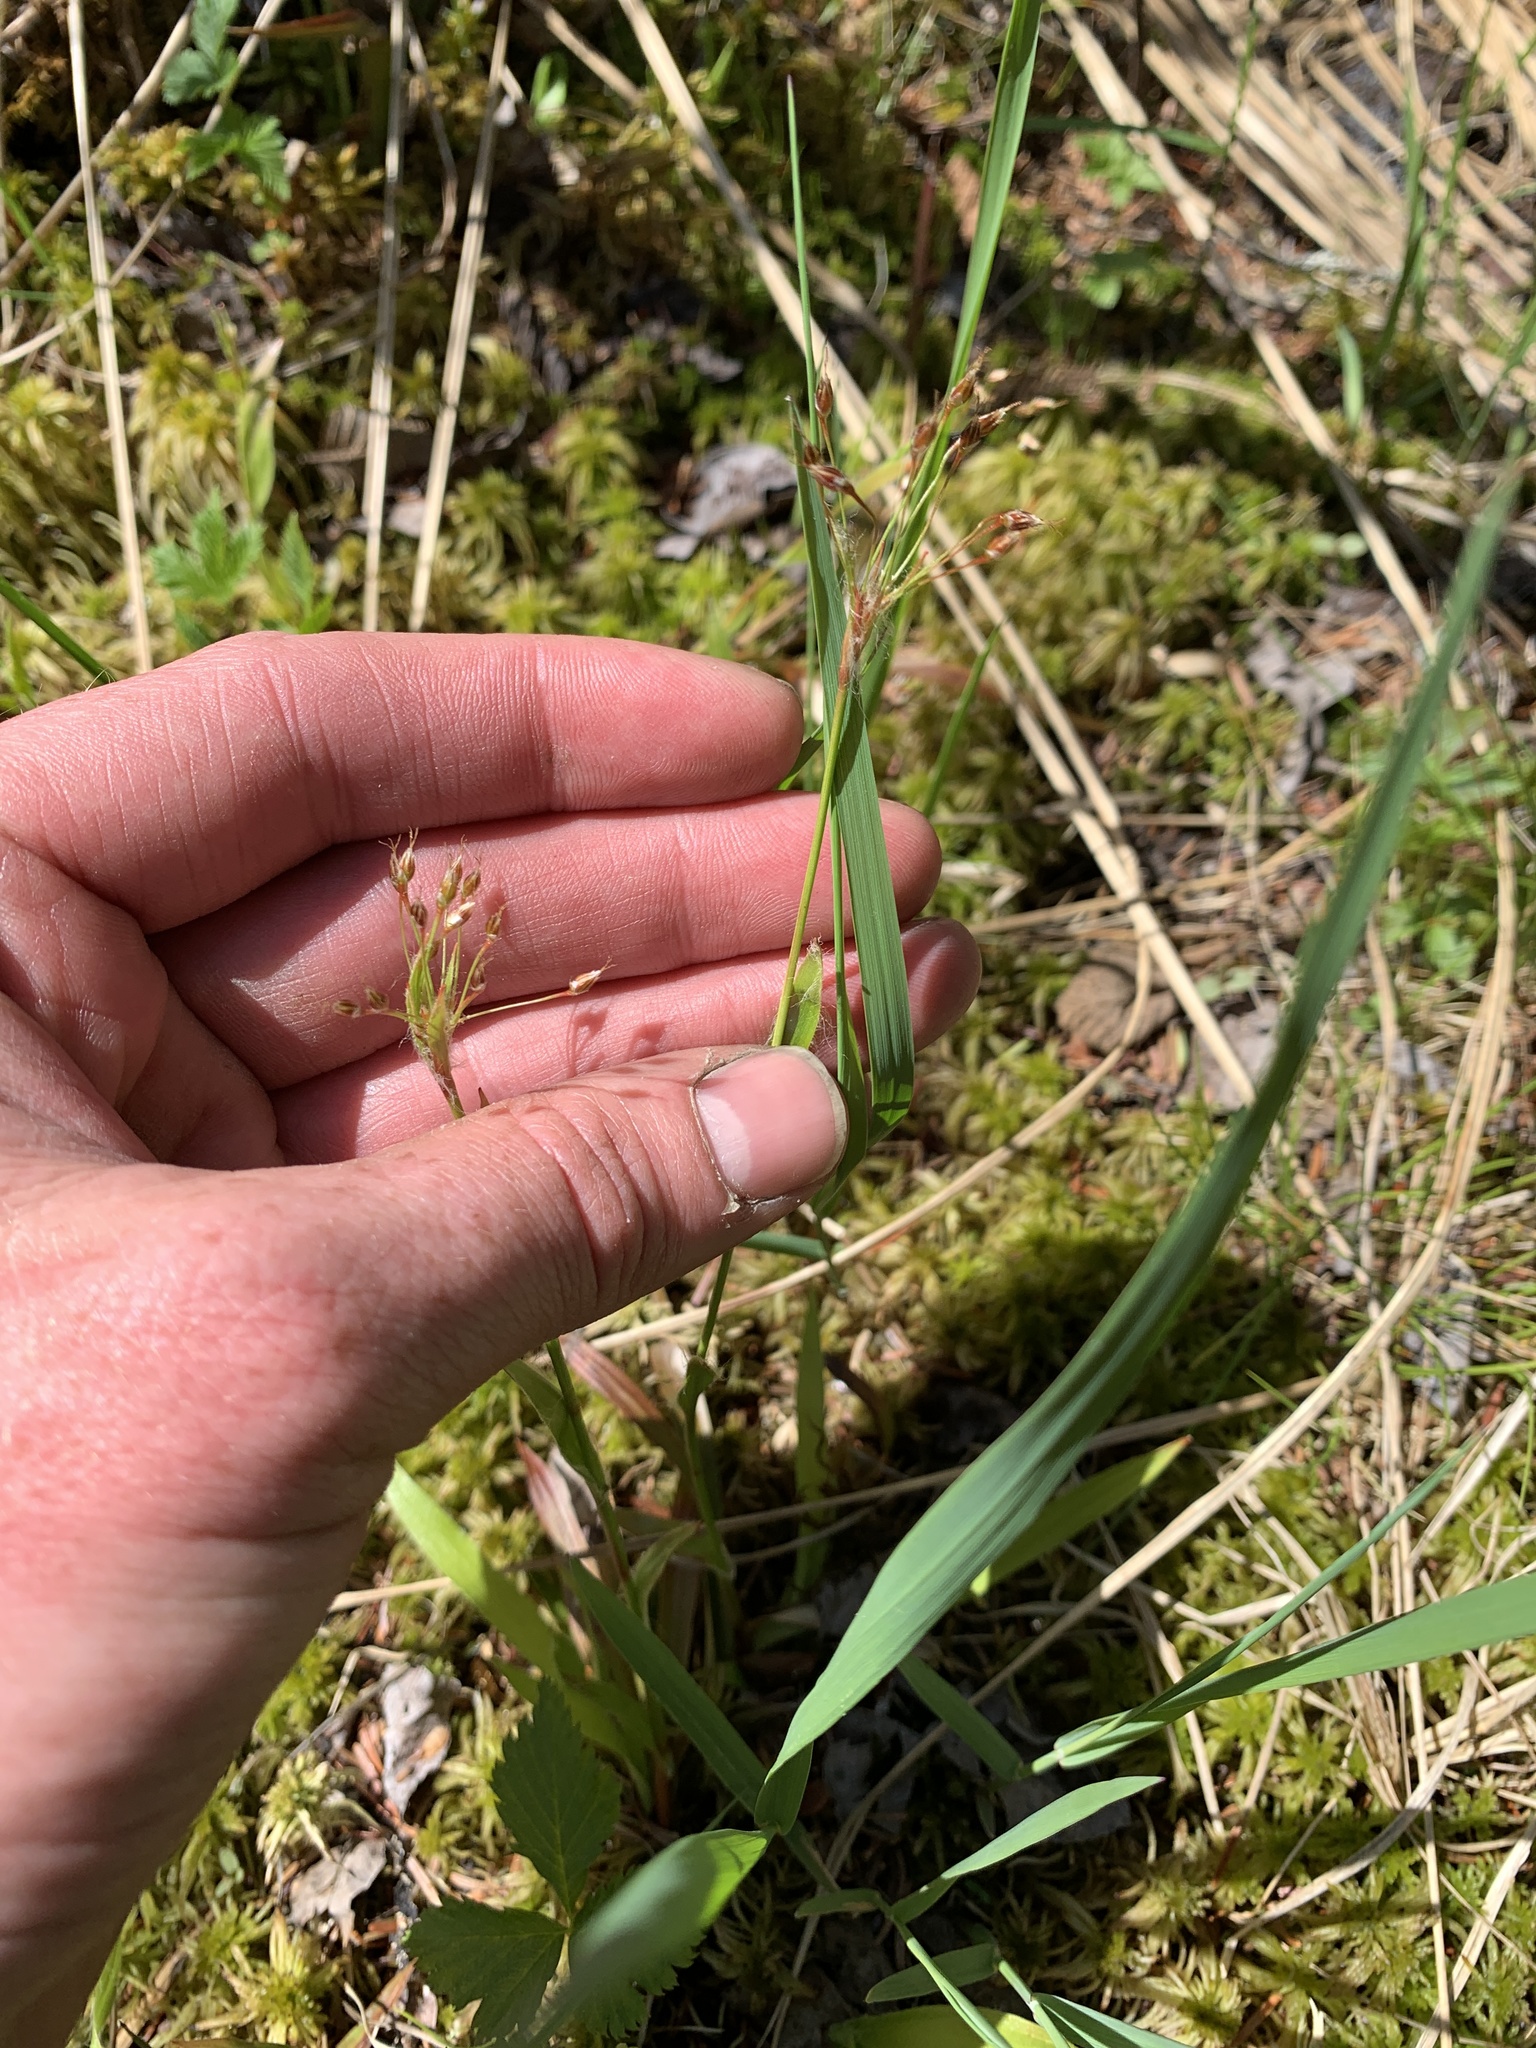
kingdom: Plantae
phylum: Tracheophyta
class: Liliopsida
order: Poales
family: Juncaceae
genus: Luzula
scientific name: Luzula acuminata
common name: Hairy woodrush
